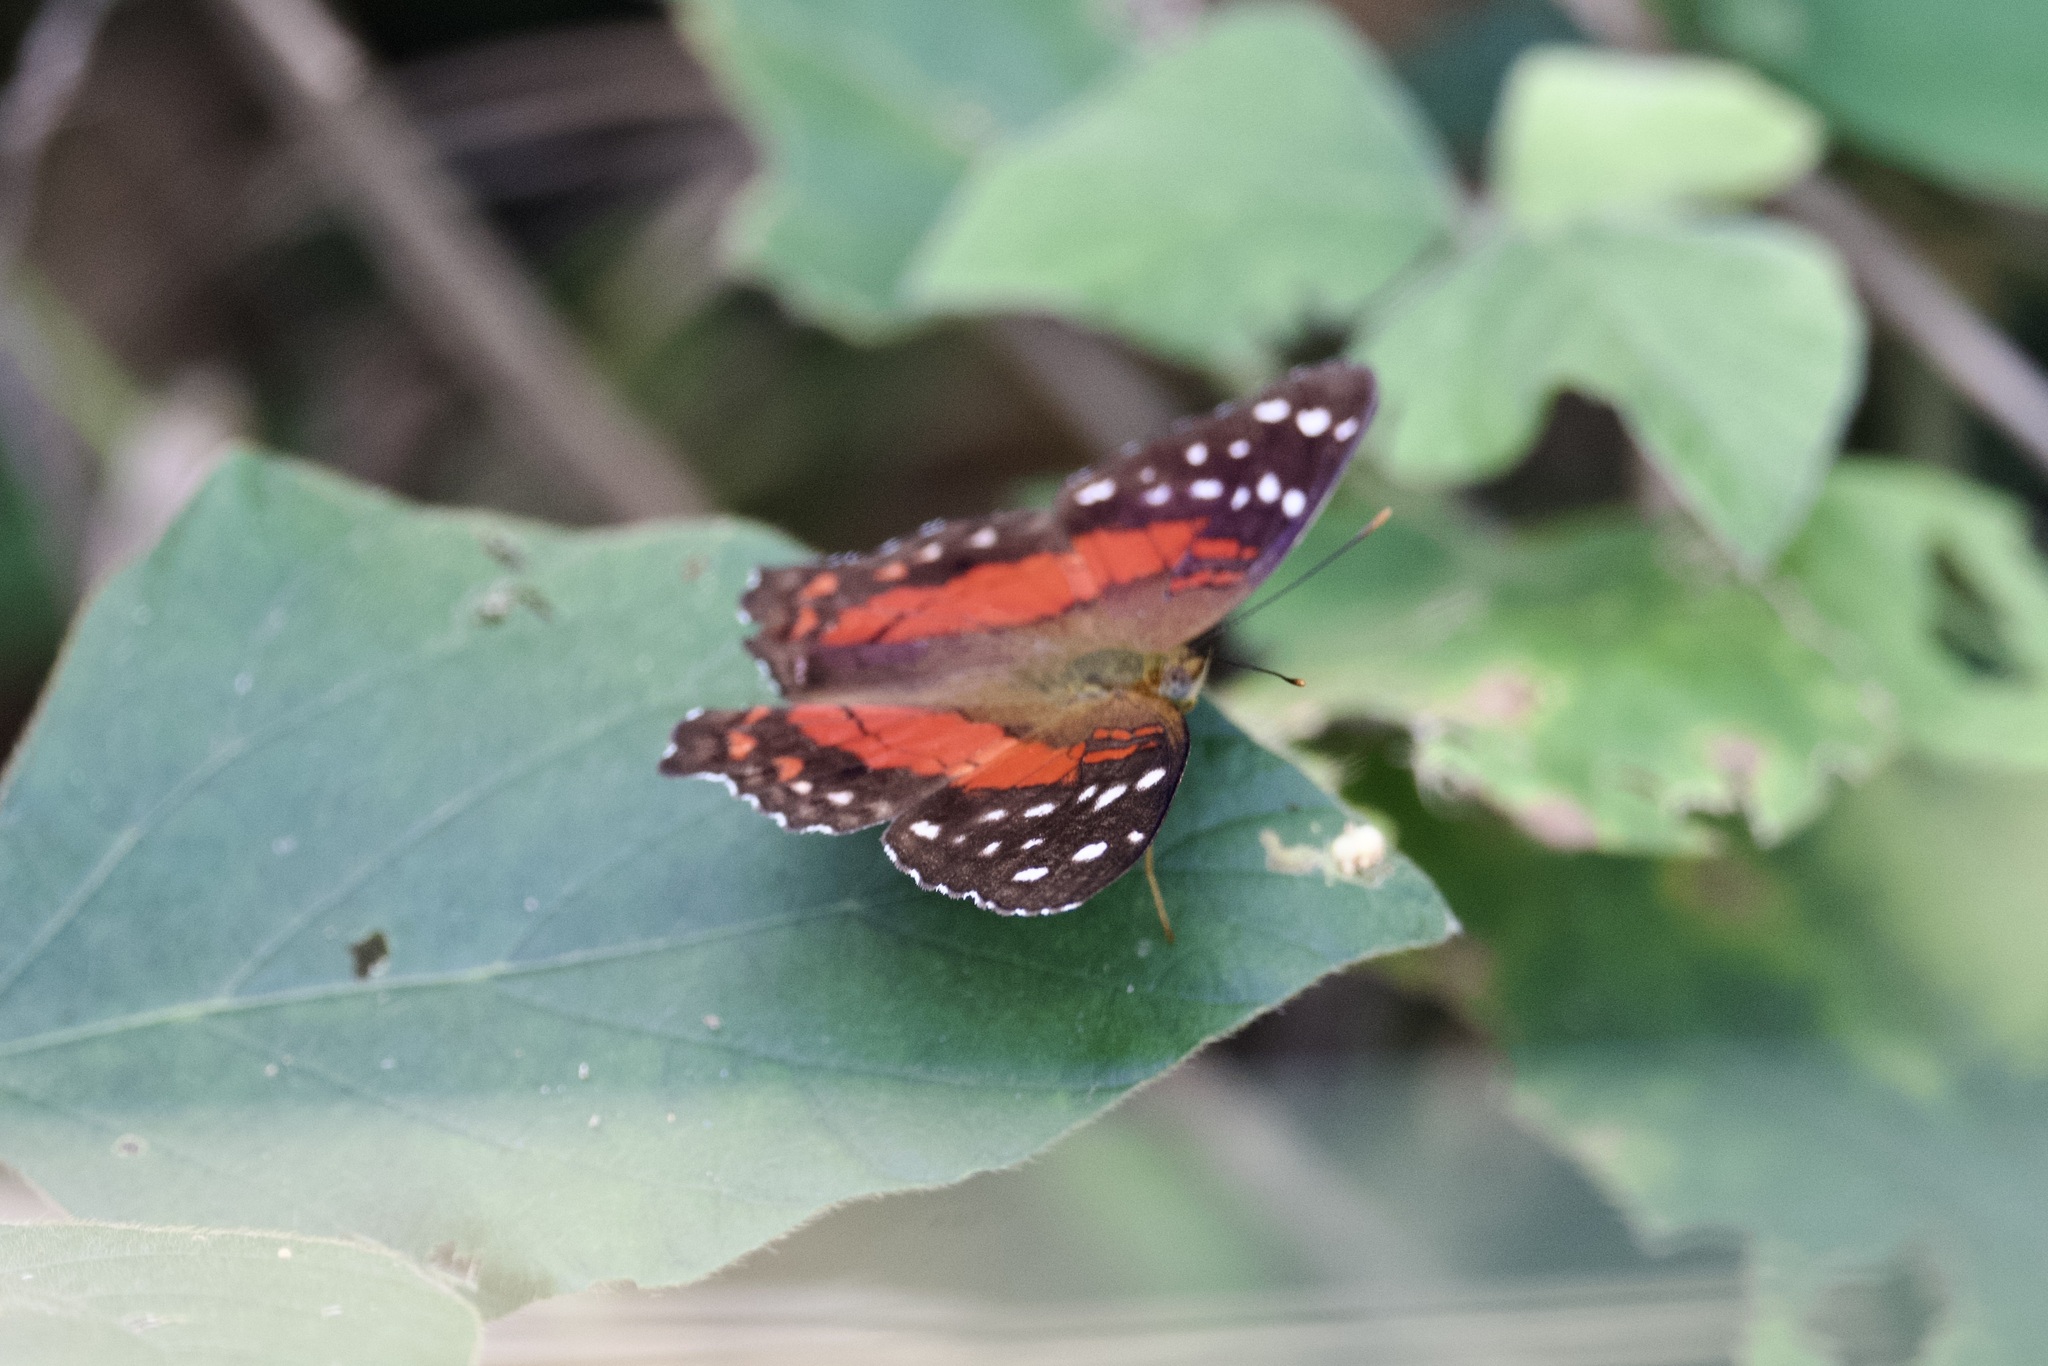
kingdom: Animalia
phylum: Arthropoda
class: Insecta
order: Lepidoptera
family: Nymphalidae
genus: Anartia
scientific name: Anartia amathea
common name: Red peacock
